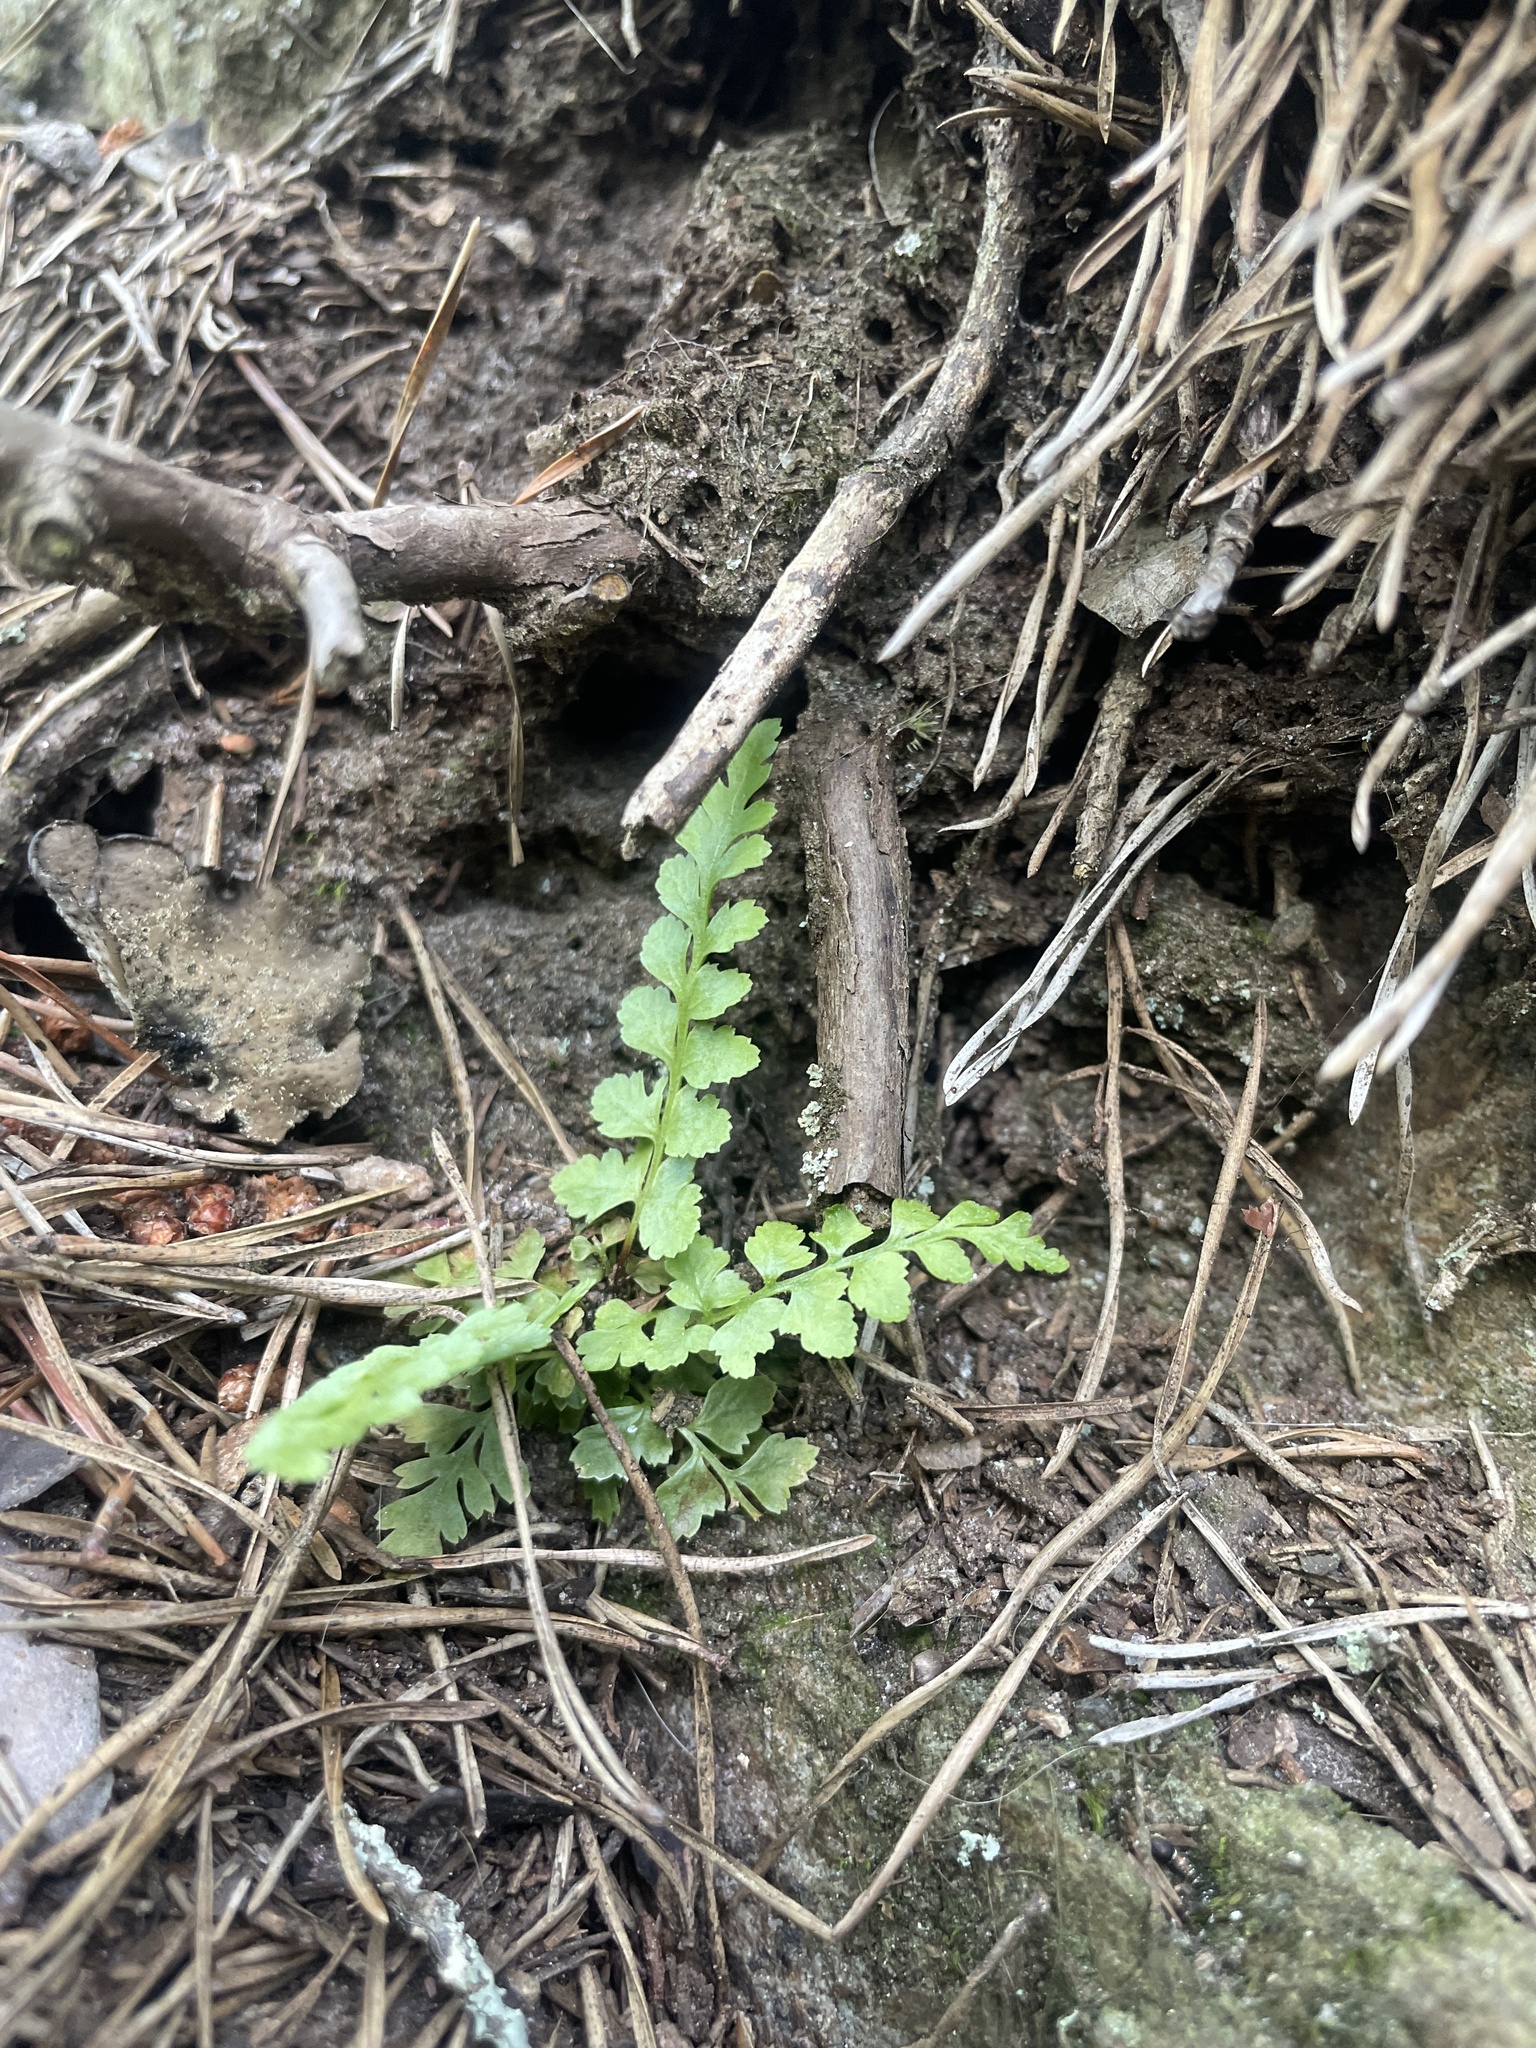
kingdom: Plantae
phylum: Tracheophyta
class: Polypodiopsida
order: Polypodiales
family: Aspleniaceae
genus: Asplenium
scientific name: Asplenium bradleyi
